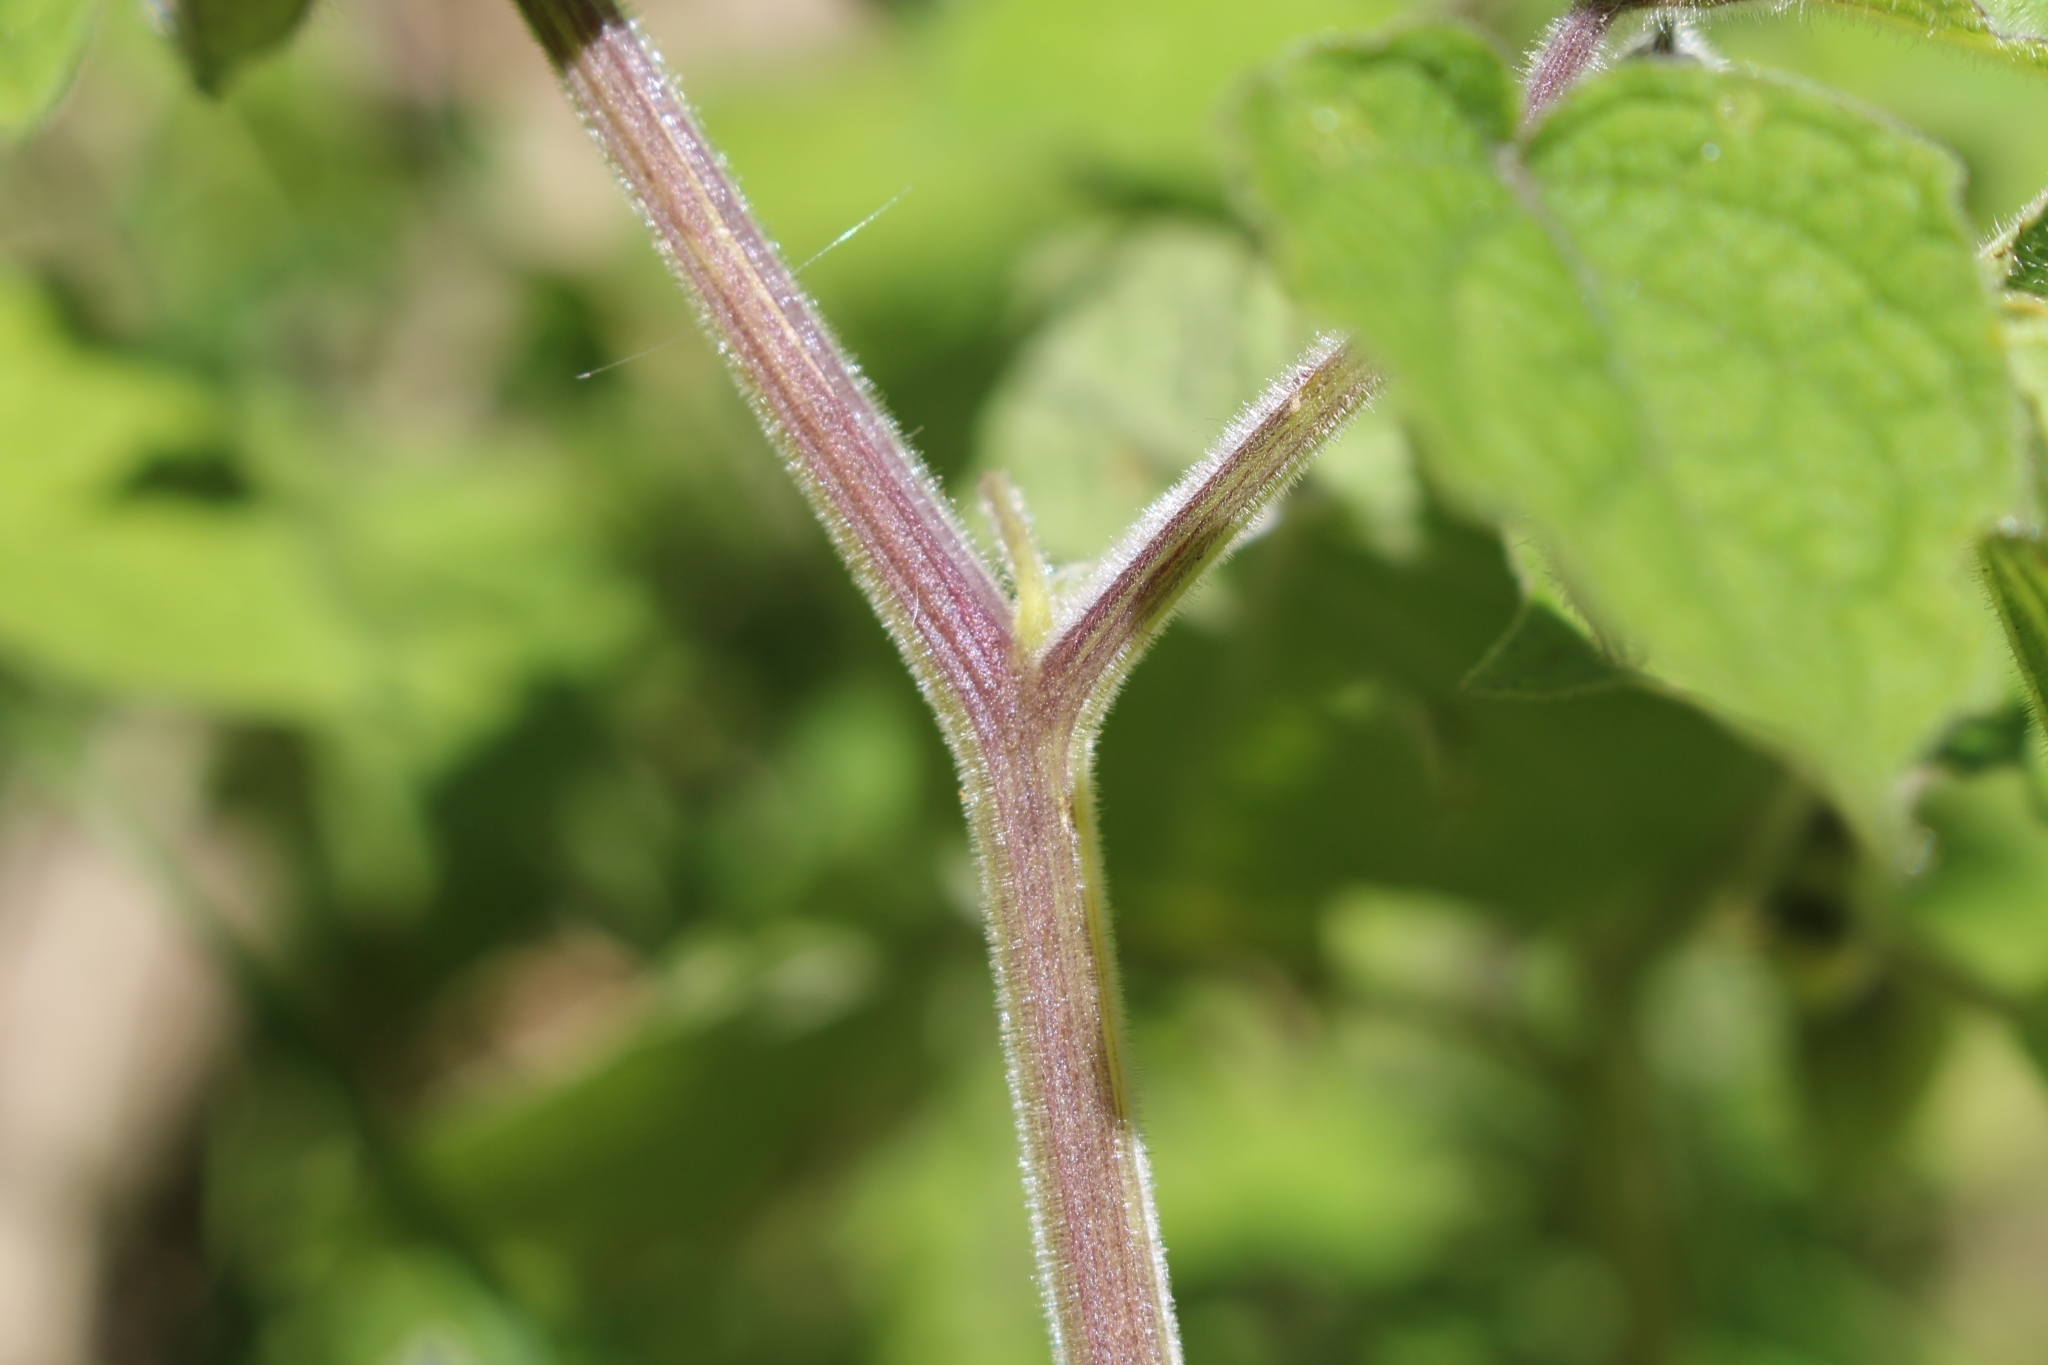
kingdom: Plantae
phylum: Tracheophyta
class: Magnoliopsida
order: Solanales
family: Solanaceae
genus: Physalis
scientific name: Physalis peruviana
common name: Cape-gooseberry
